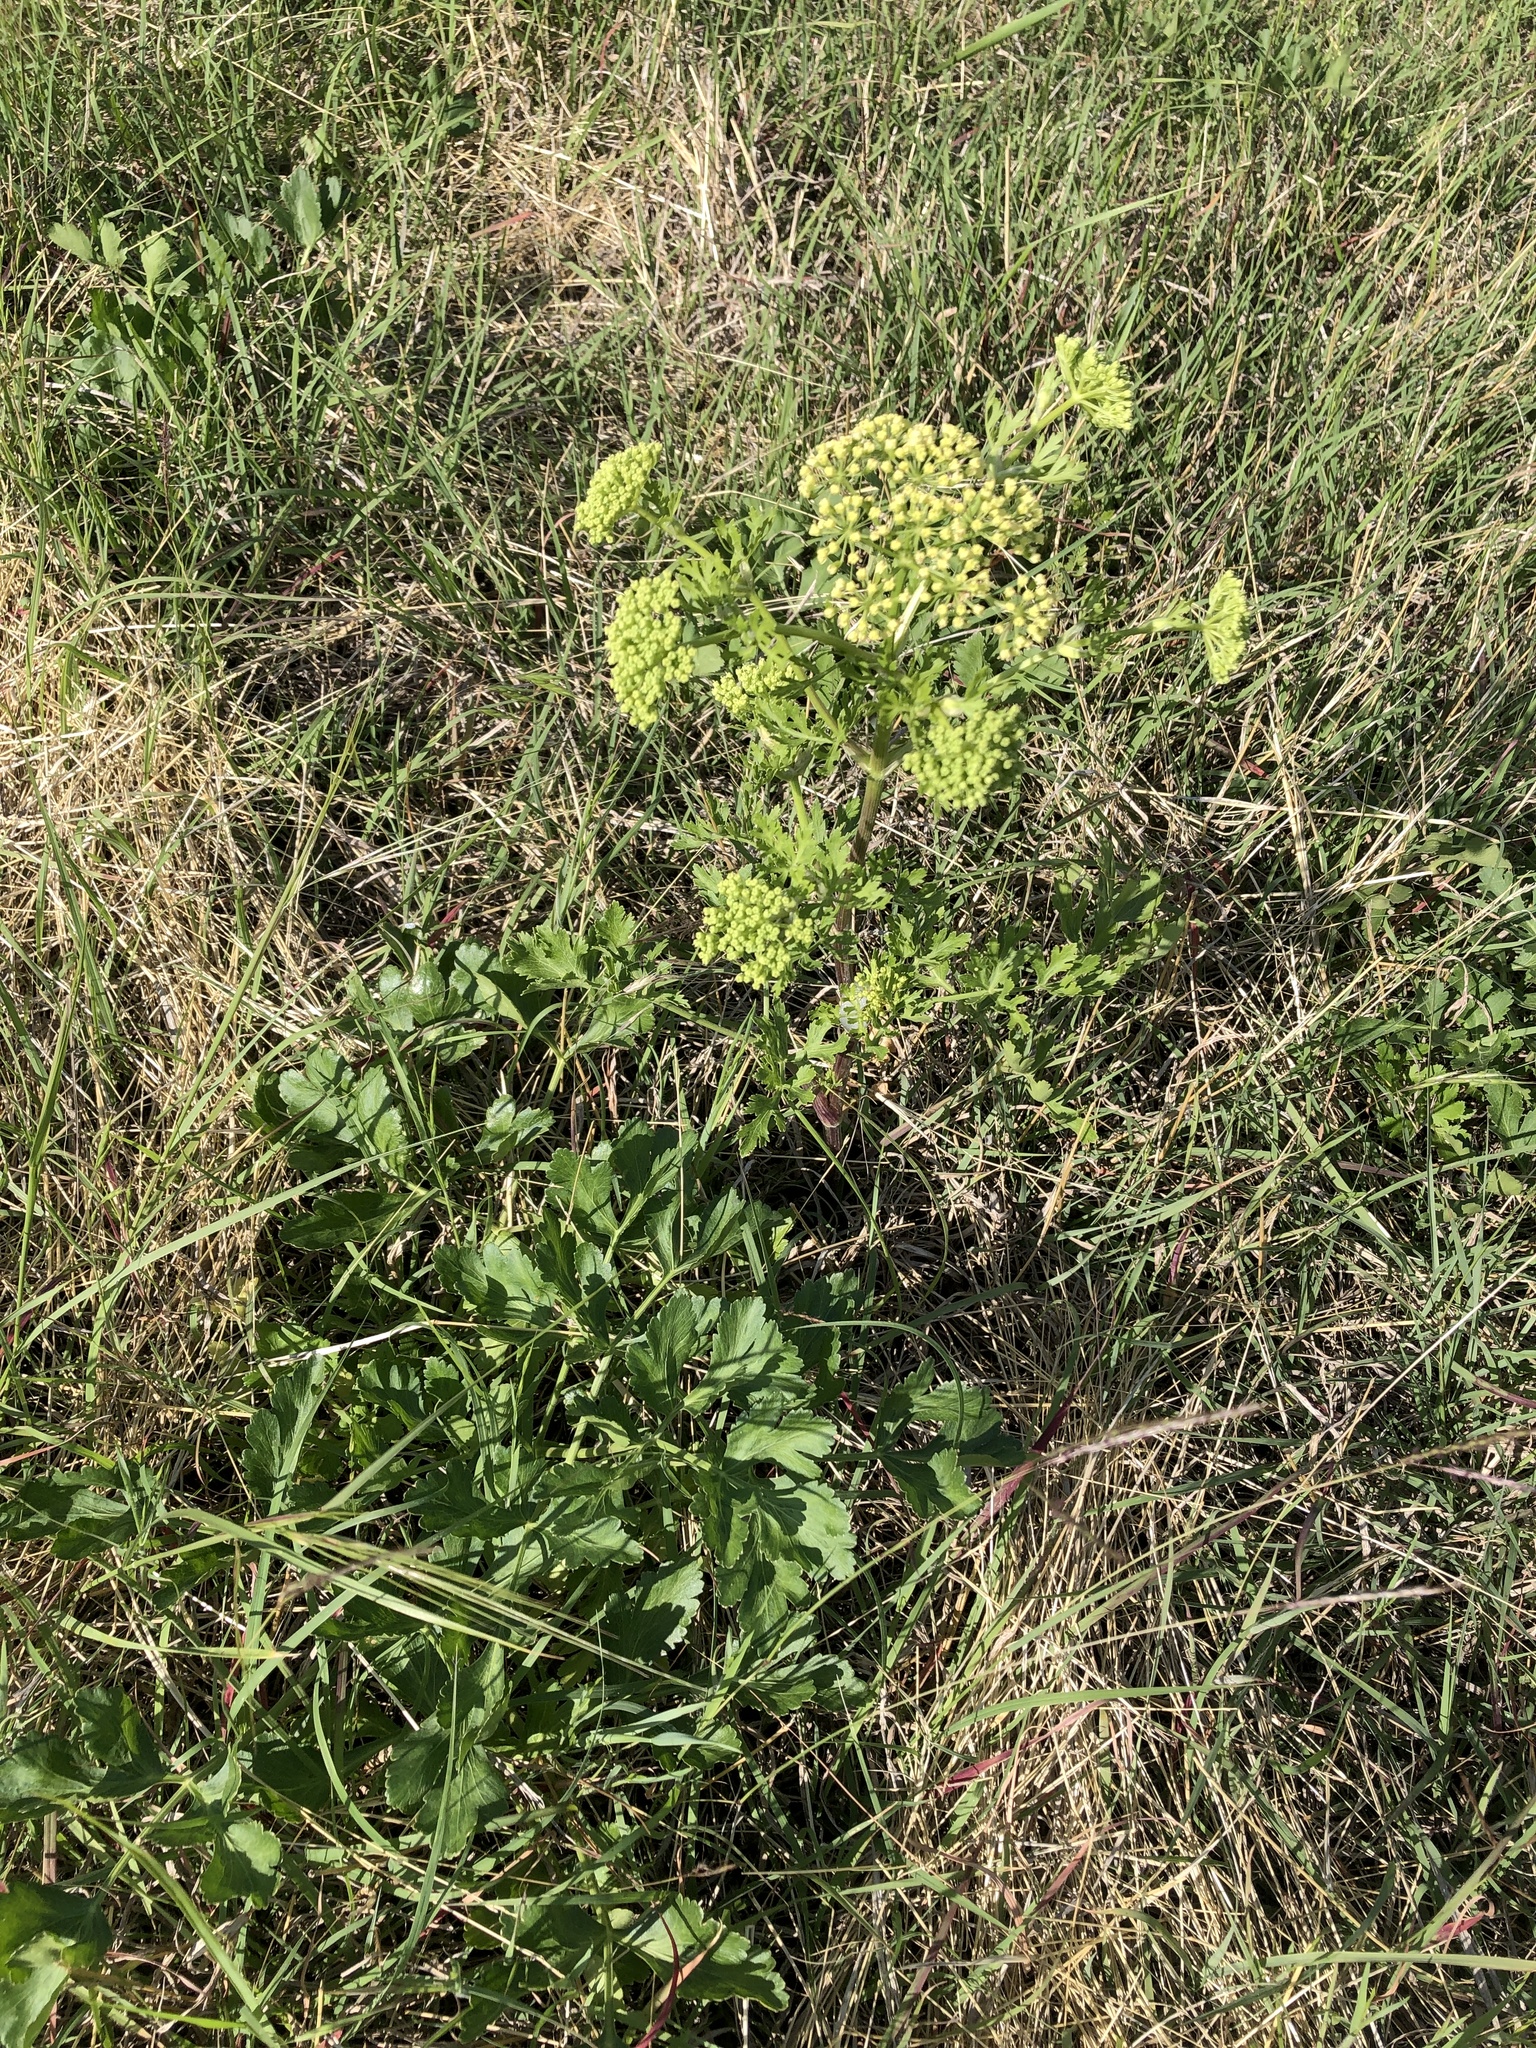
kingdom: Plantae
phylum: Tracheophyta
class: Magnoliopsida
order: Apiales
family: Apiaceae
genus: Polytaenia
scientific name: Polytaenia texana
